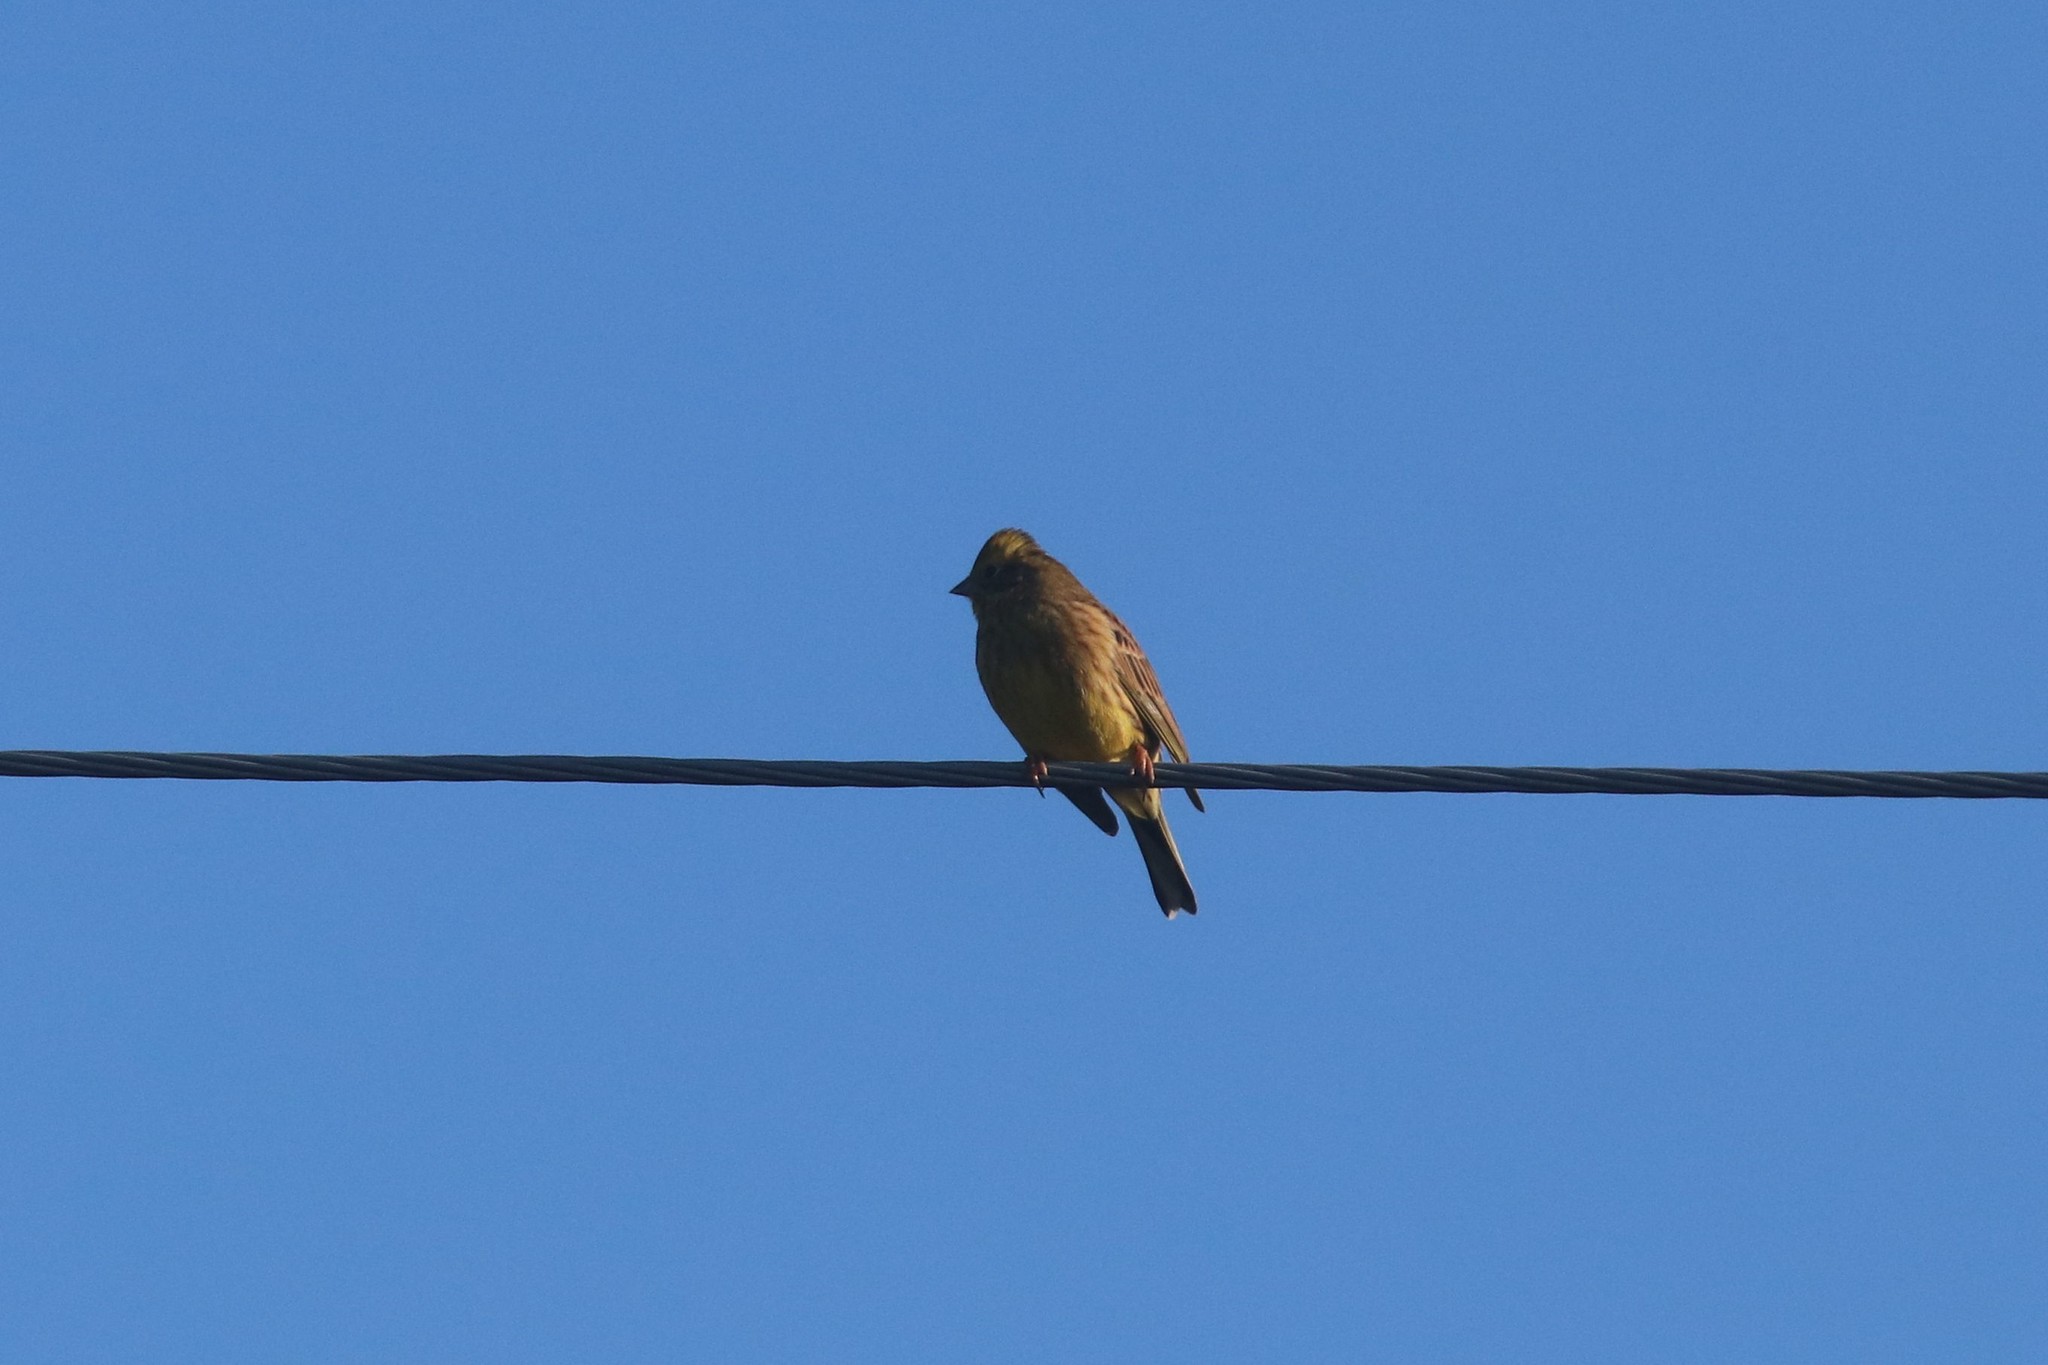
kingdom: Animalia
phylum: Chordata
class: Aves
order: Passeriformes
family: Emberizidae
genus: Emberiza
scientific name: Emberiza citrinella
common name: Yellowhammer
